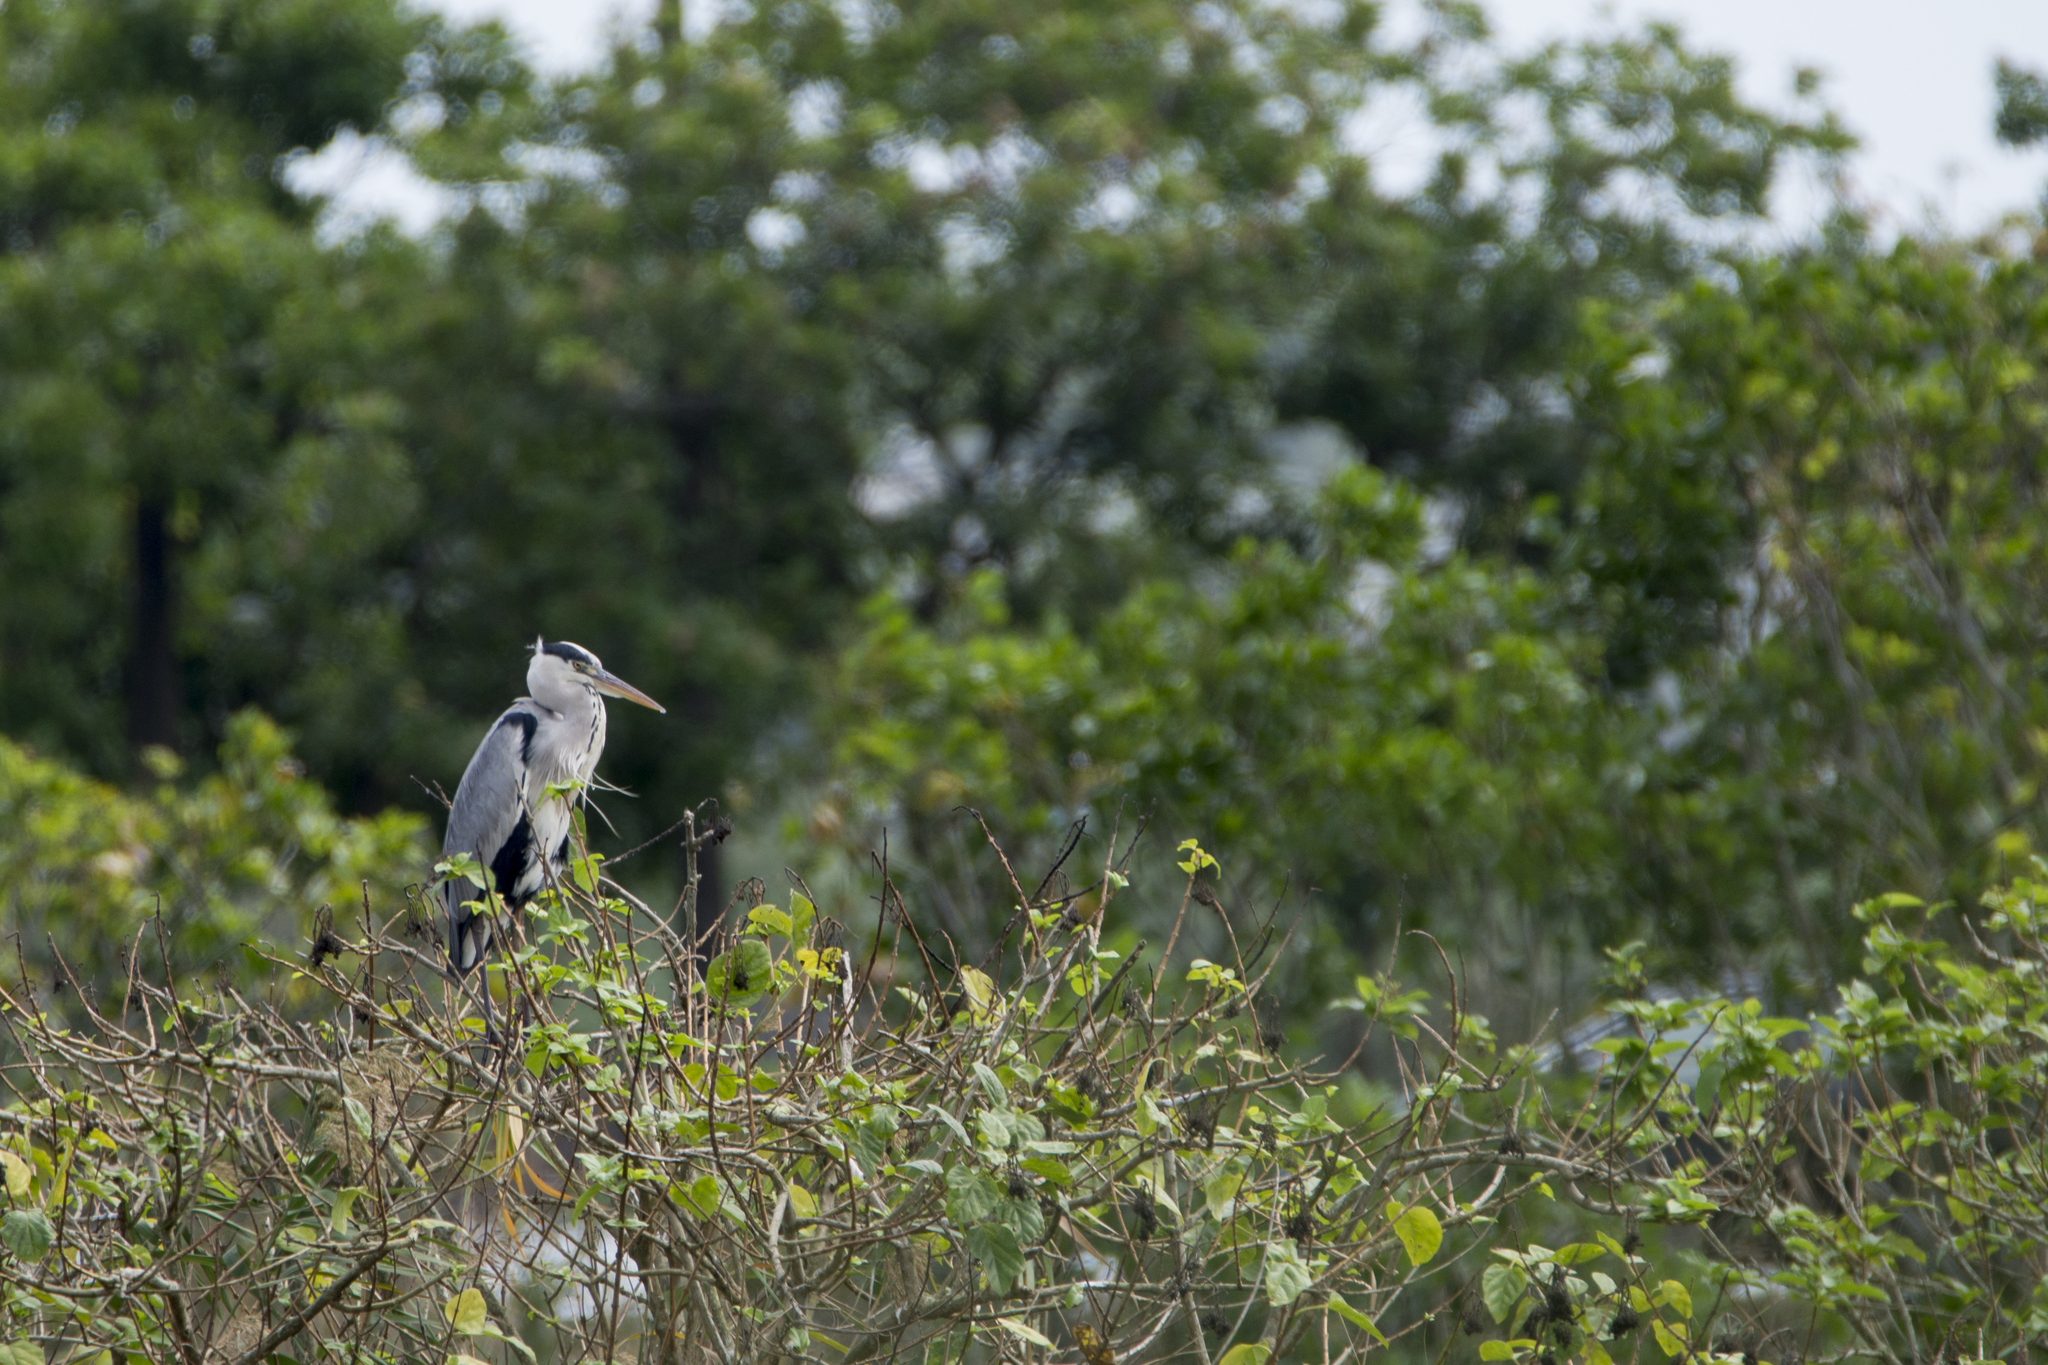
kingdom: Animalia
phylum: Chordata
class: Aves
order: Pelecaniformes
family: Ardeidae
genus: Ardea
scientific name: Ardea cinerea
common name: Grey heron
